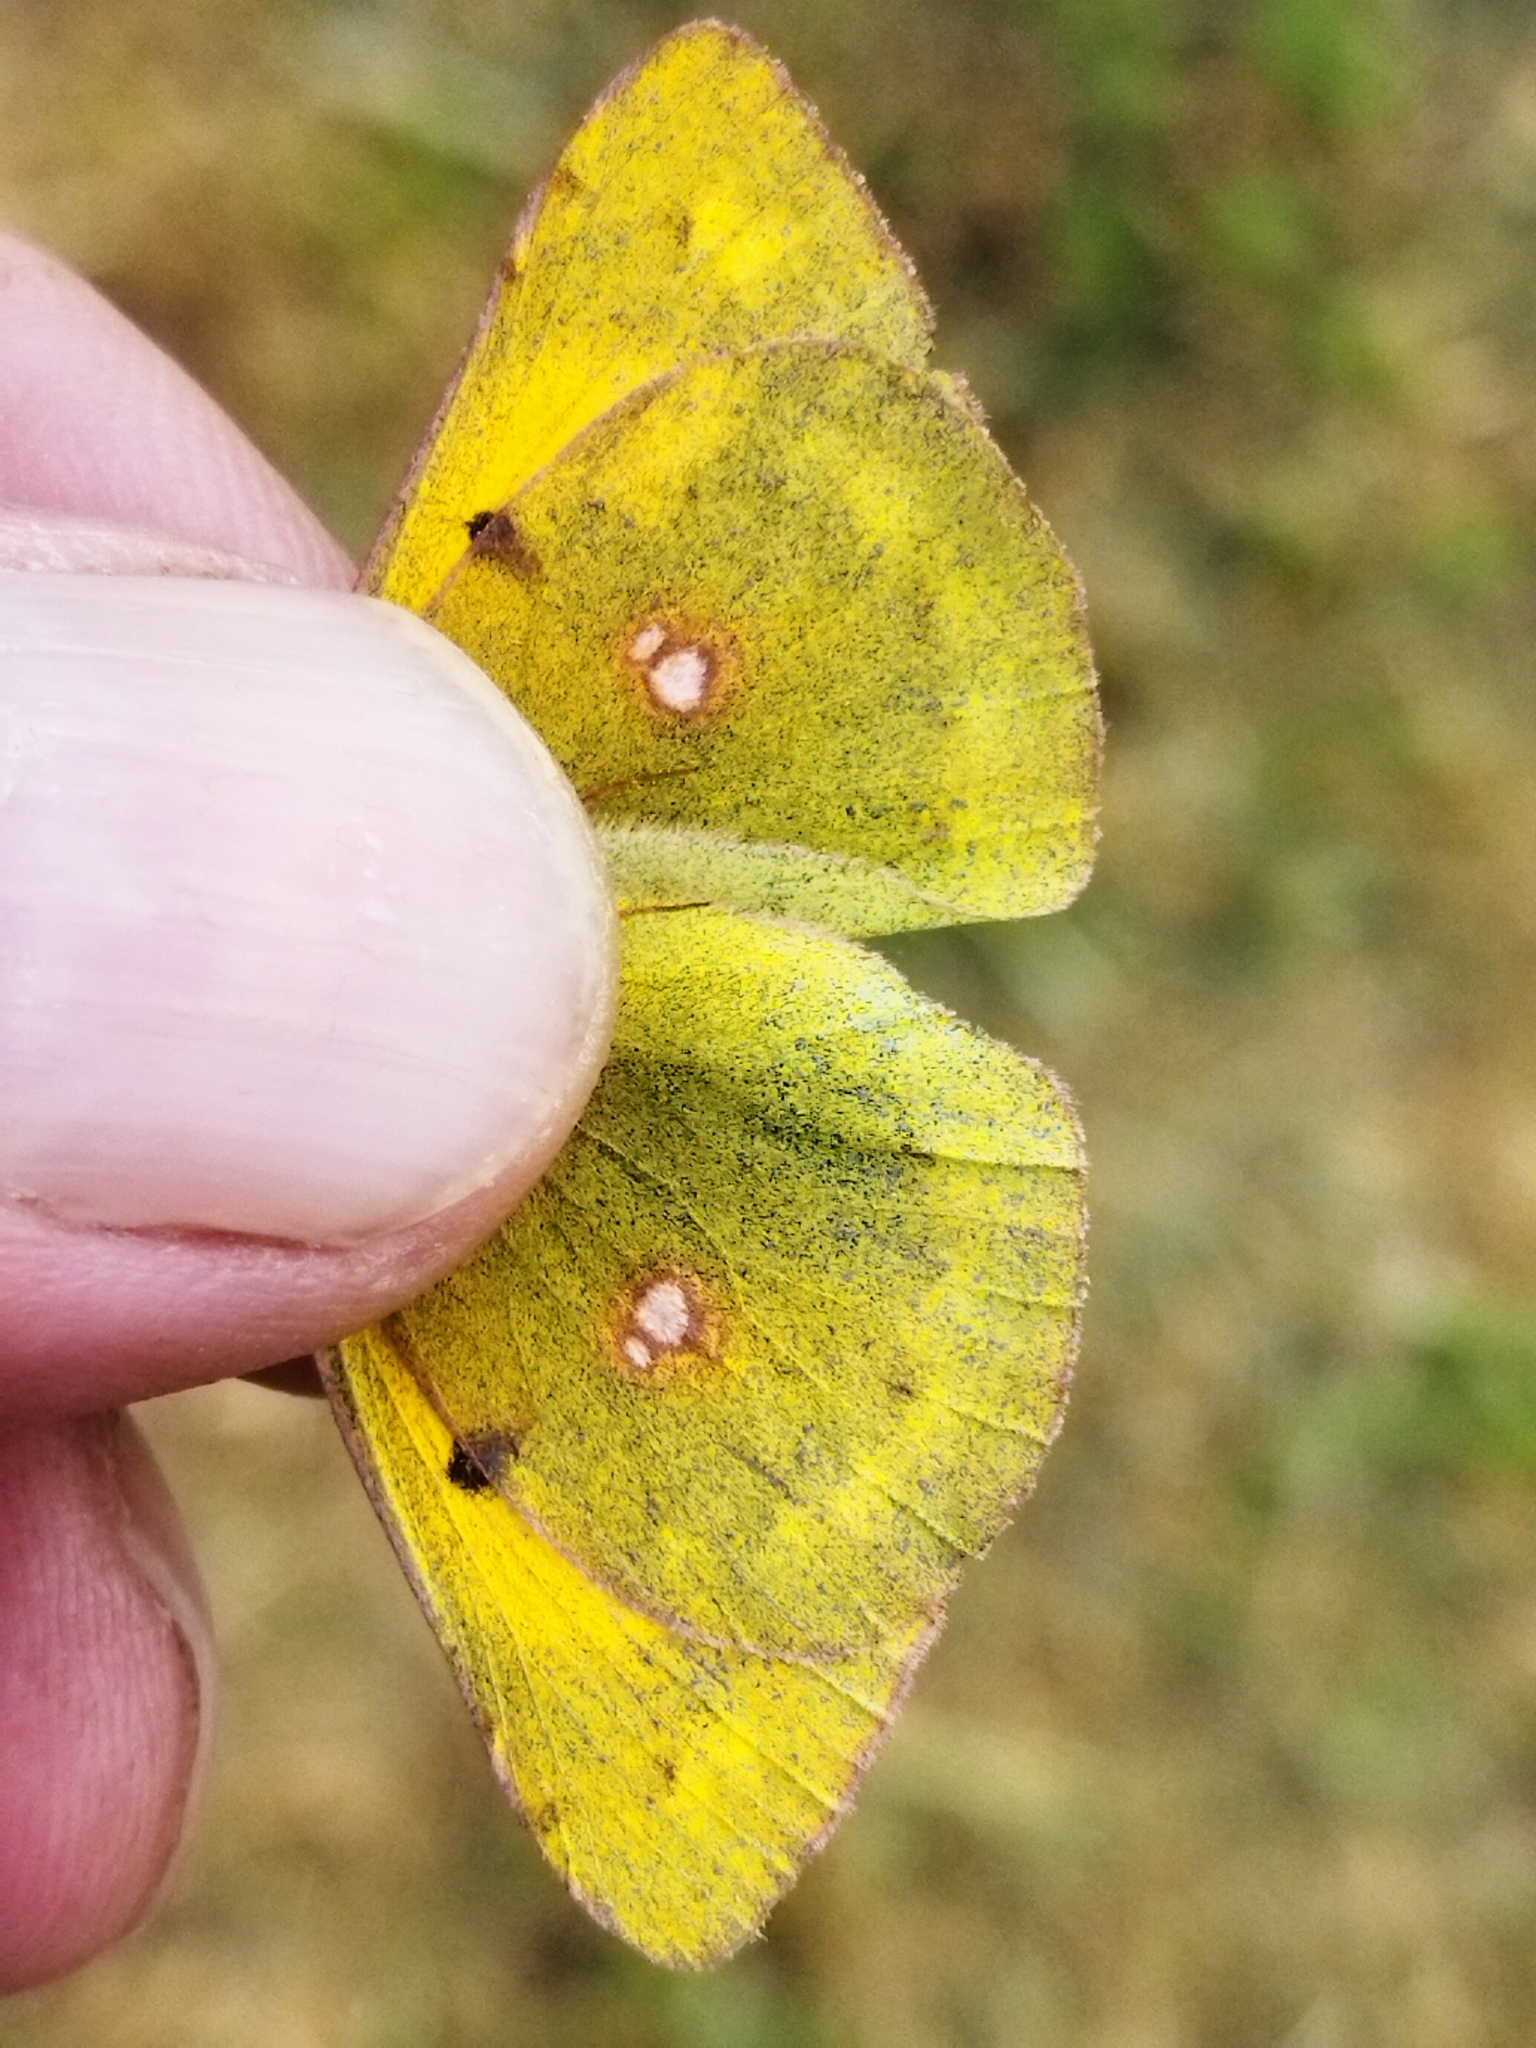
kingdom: Animalia
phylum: Arthropoda
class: Insecta
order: Lepidoptera
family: Pieridae
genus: Colias
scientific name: Colias croceus
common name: Clouded yellow
